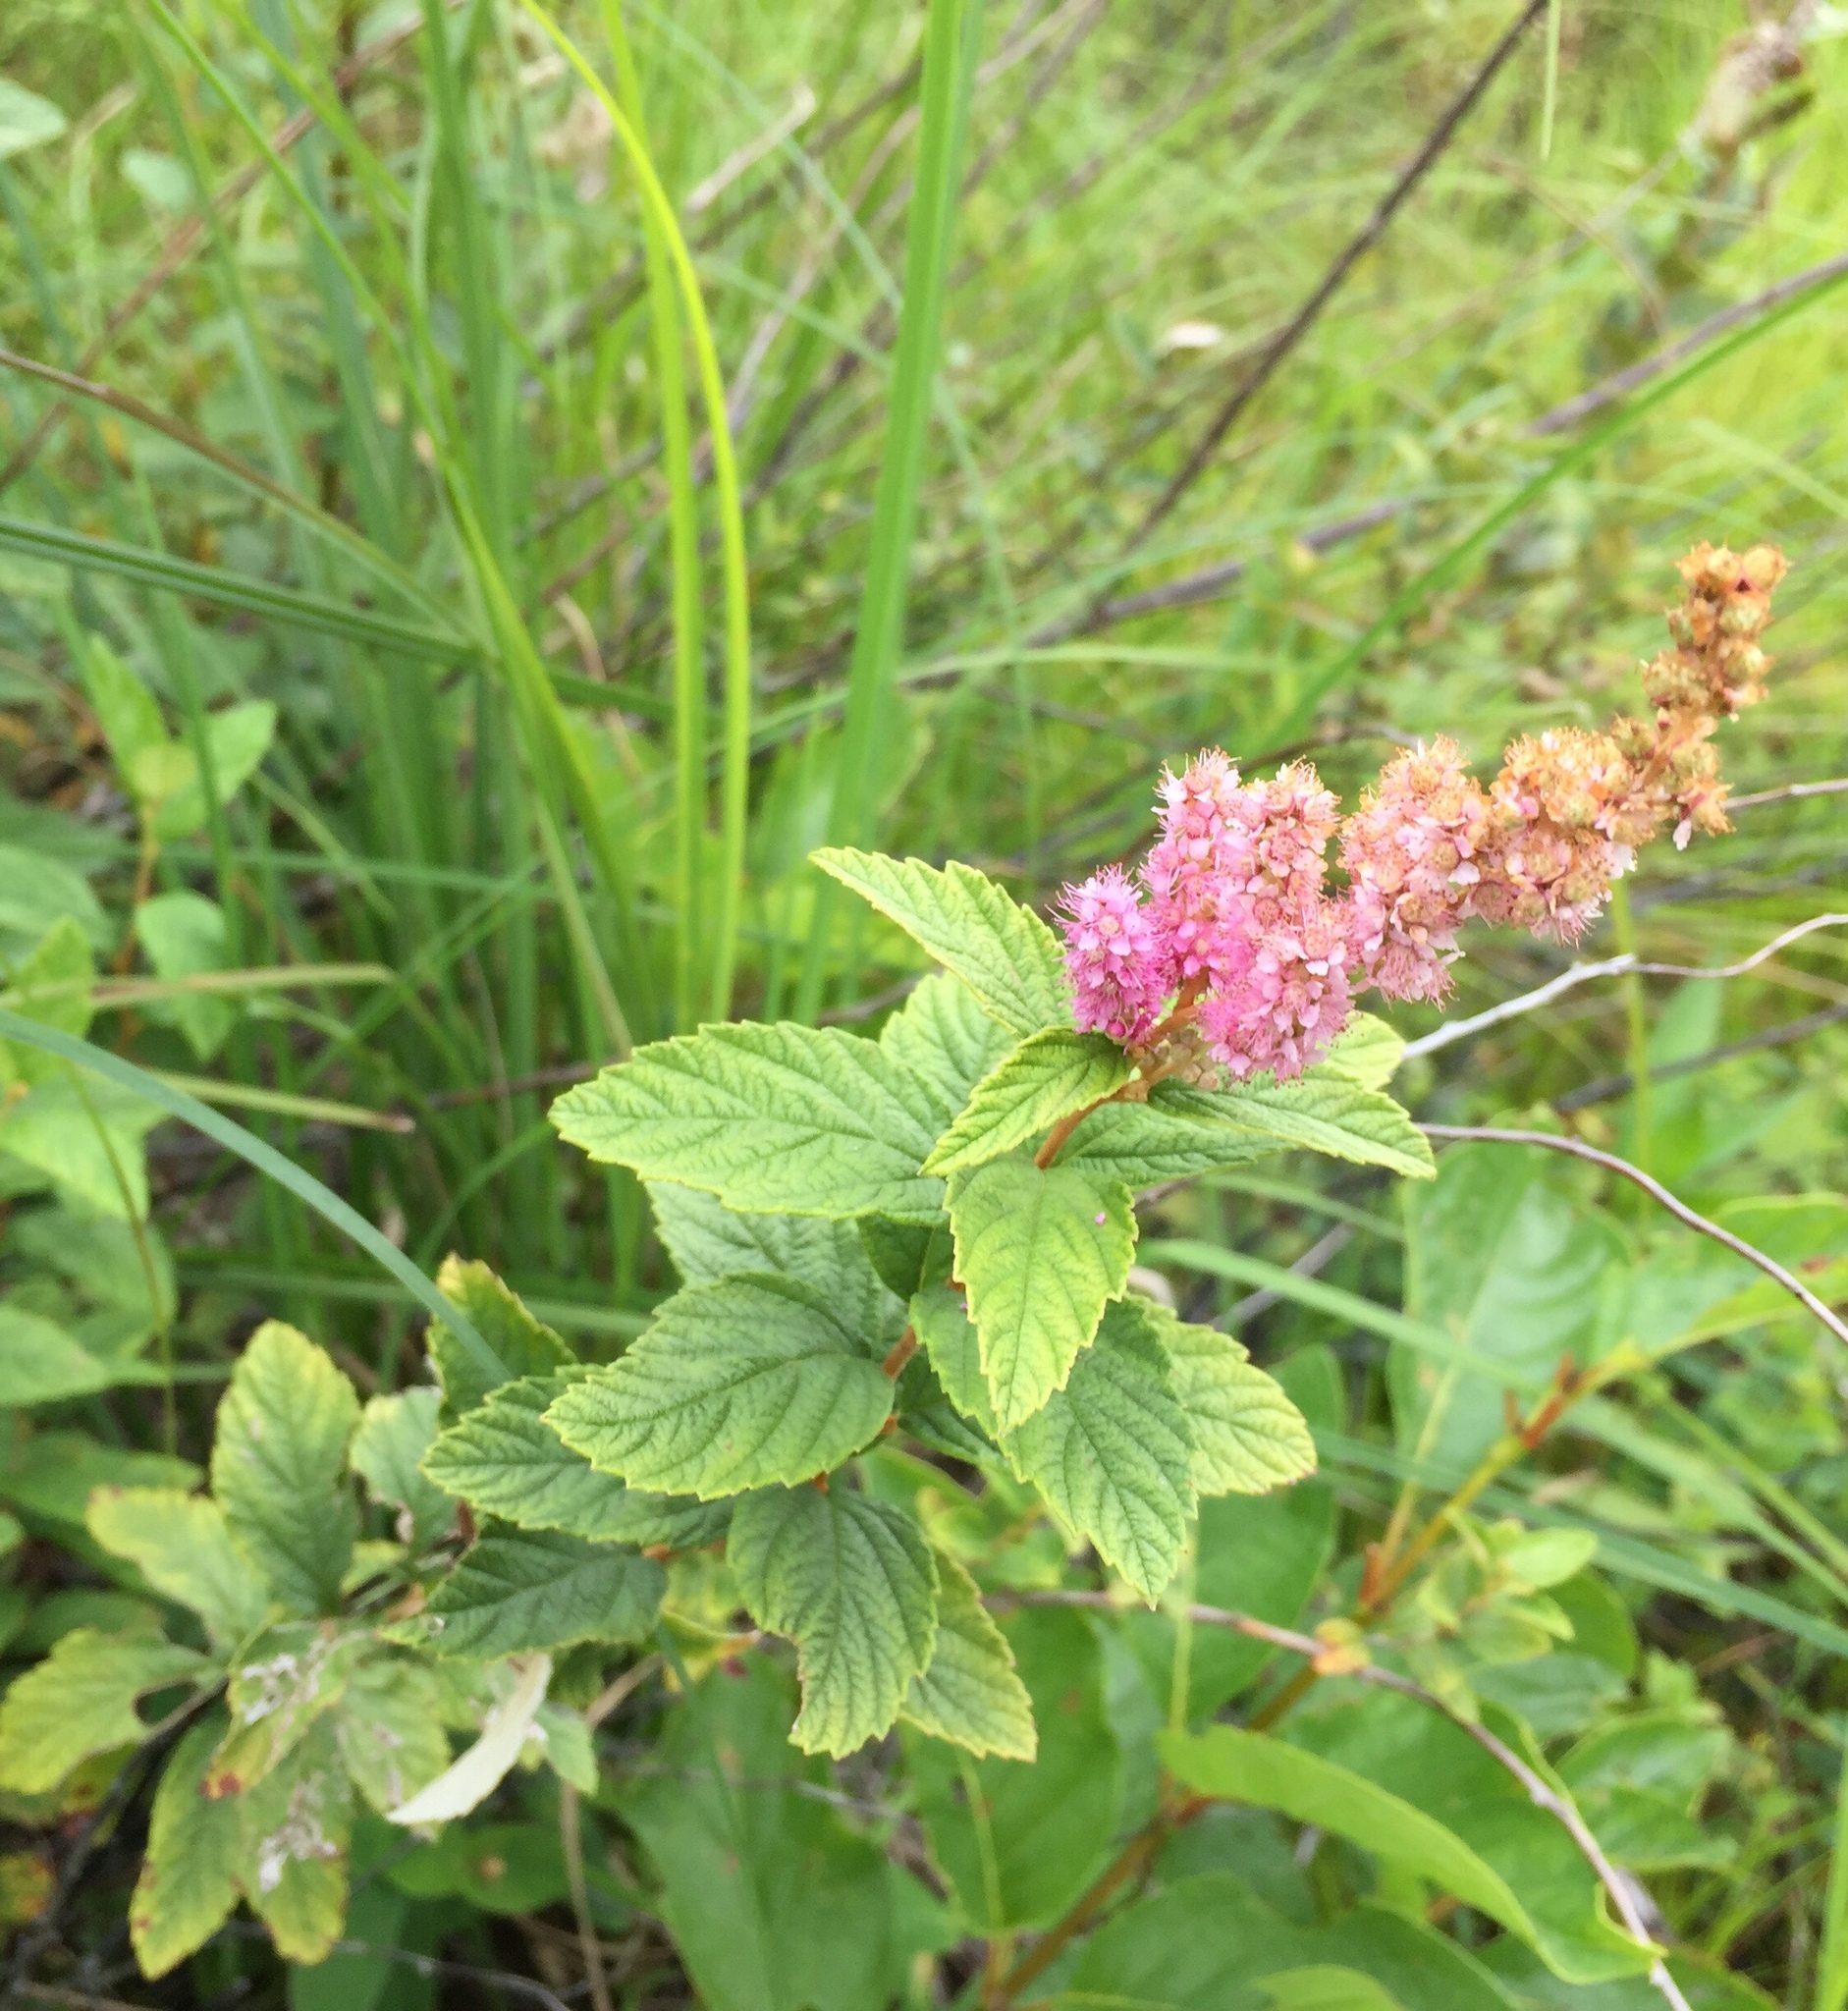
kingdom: Plantae
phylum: Tracheophyta
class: Magnoliopsida
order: Rosales
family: Rosaceae
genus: Spiraea
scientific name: Spiraea tomentosa
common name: Hardhack
